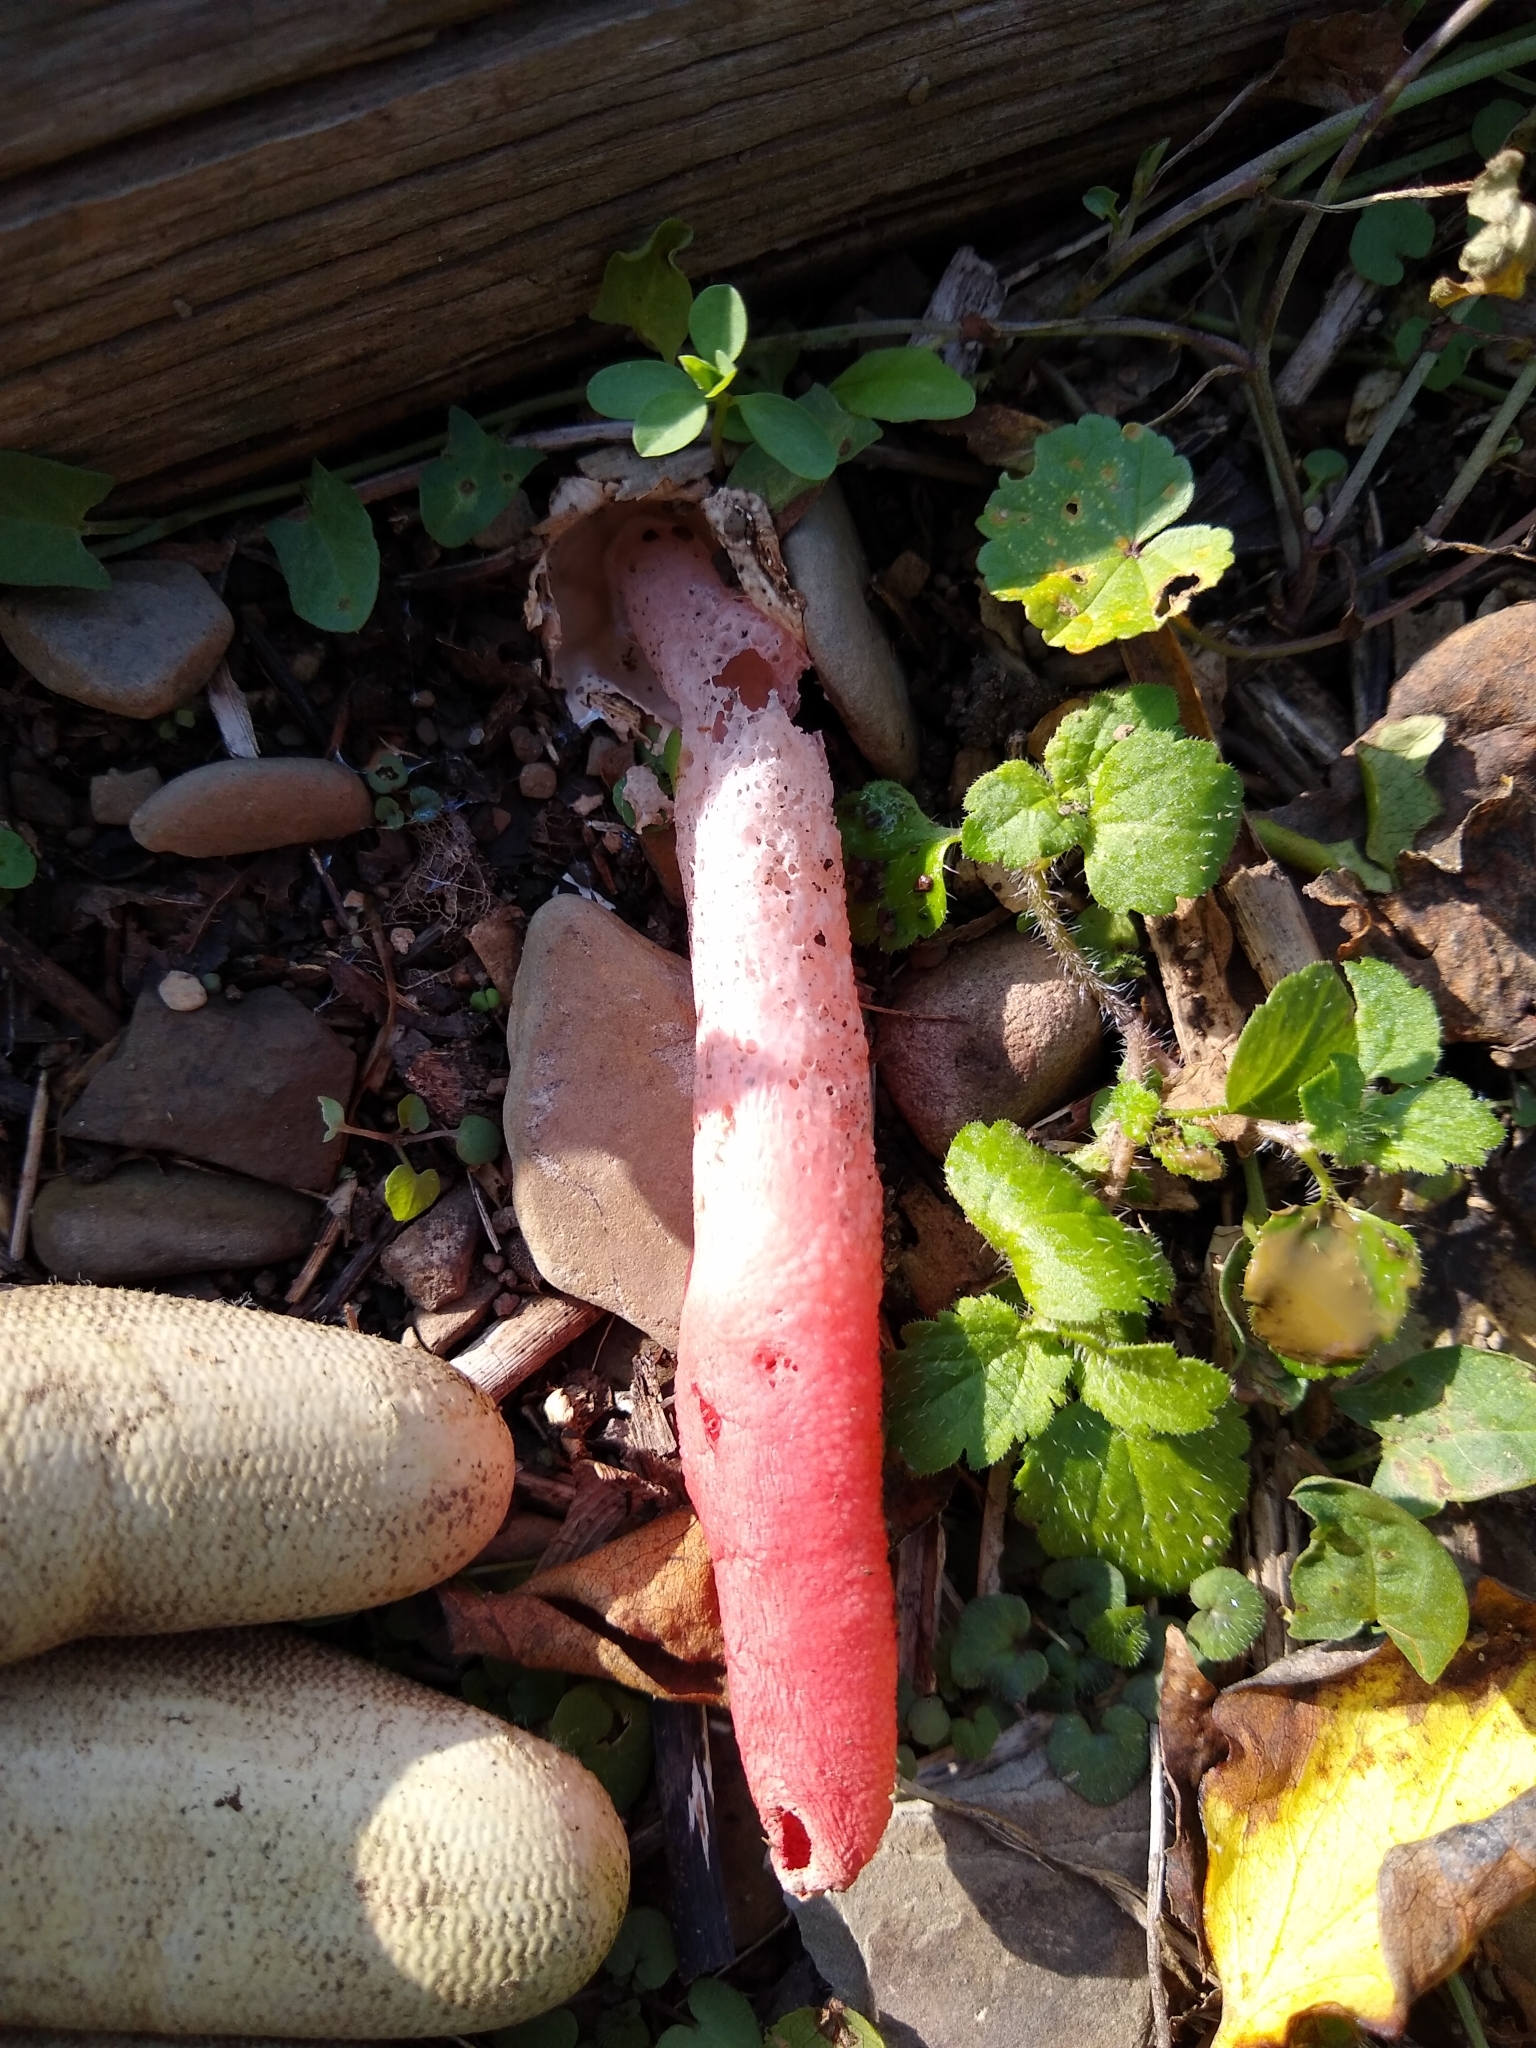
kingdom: Fungi
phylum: Basidiomycota
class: Agaricomycetes
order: Phallales
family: Phallaceae
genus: Mutinus
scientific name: Mutinus elegans
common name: Devil's dipstick
